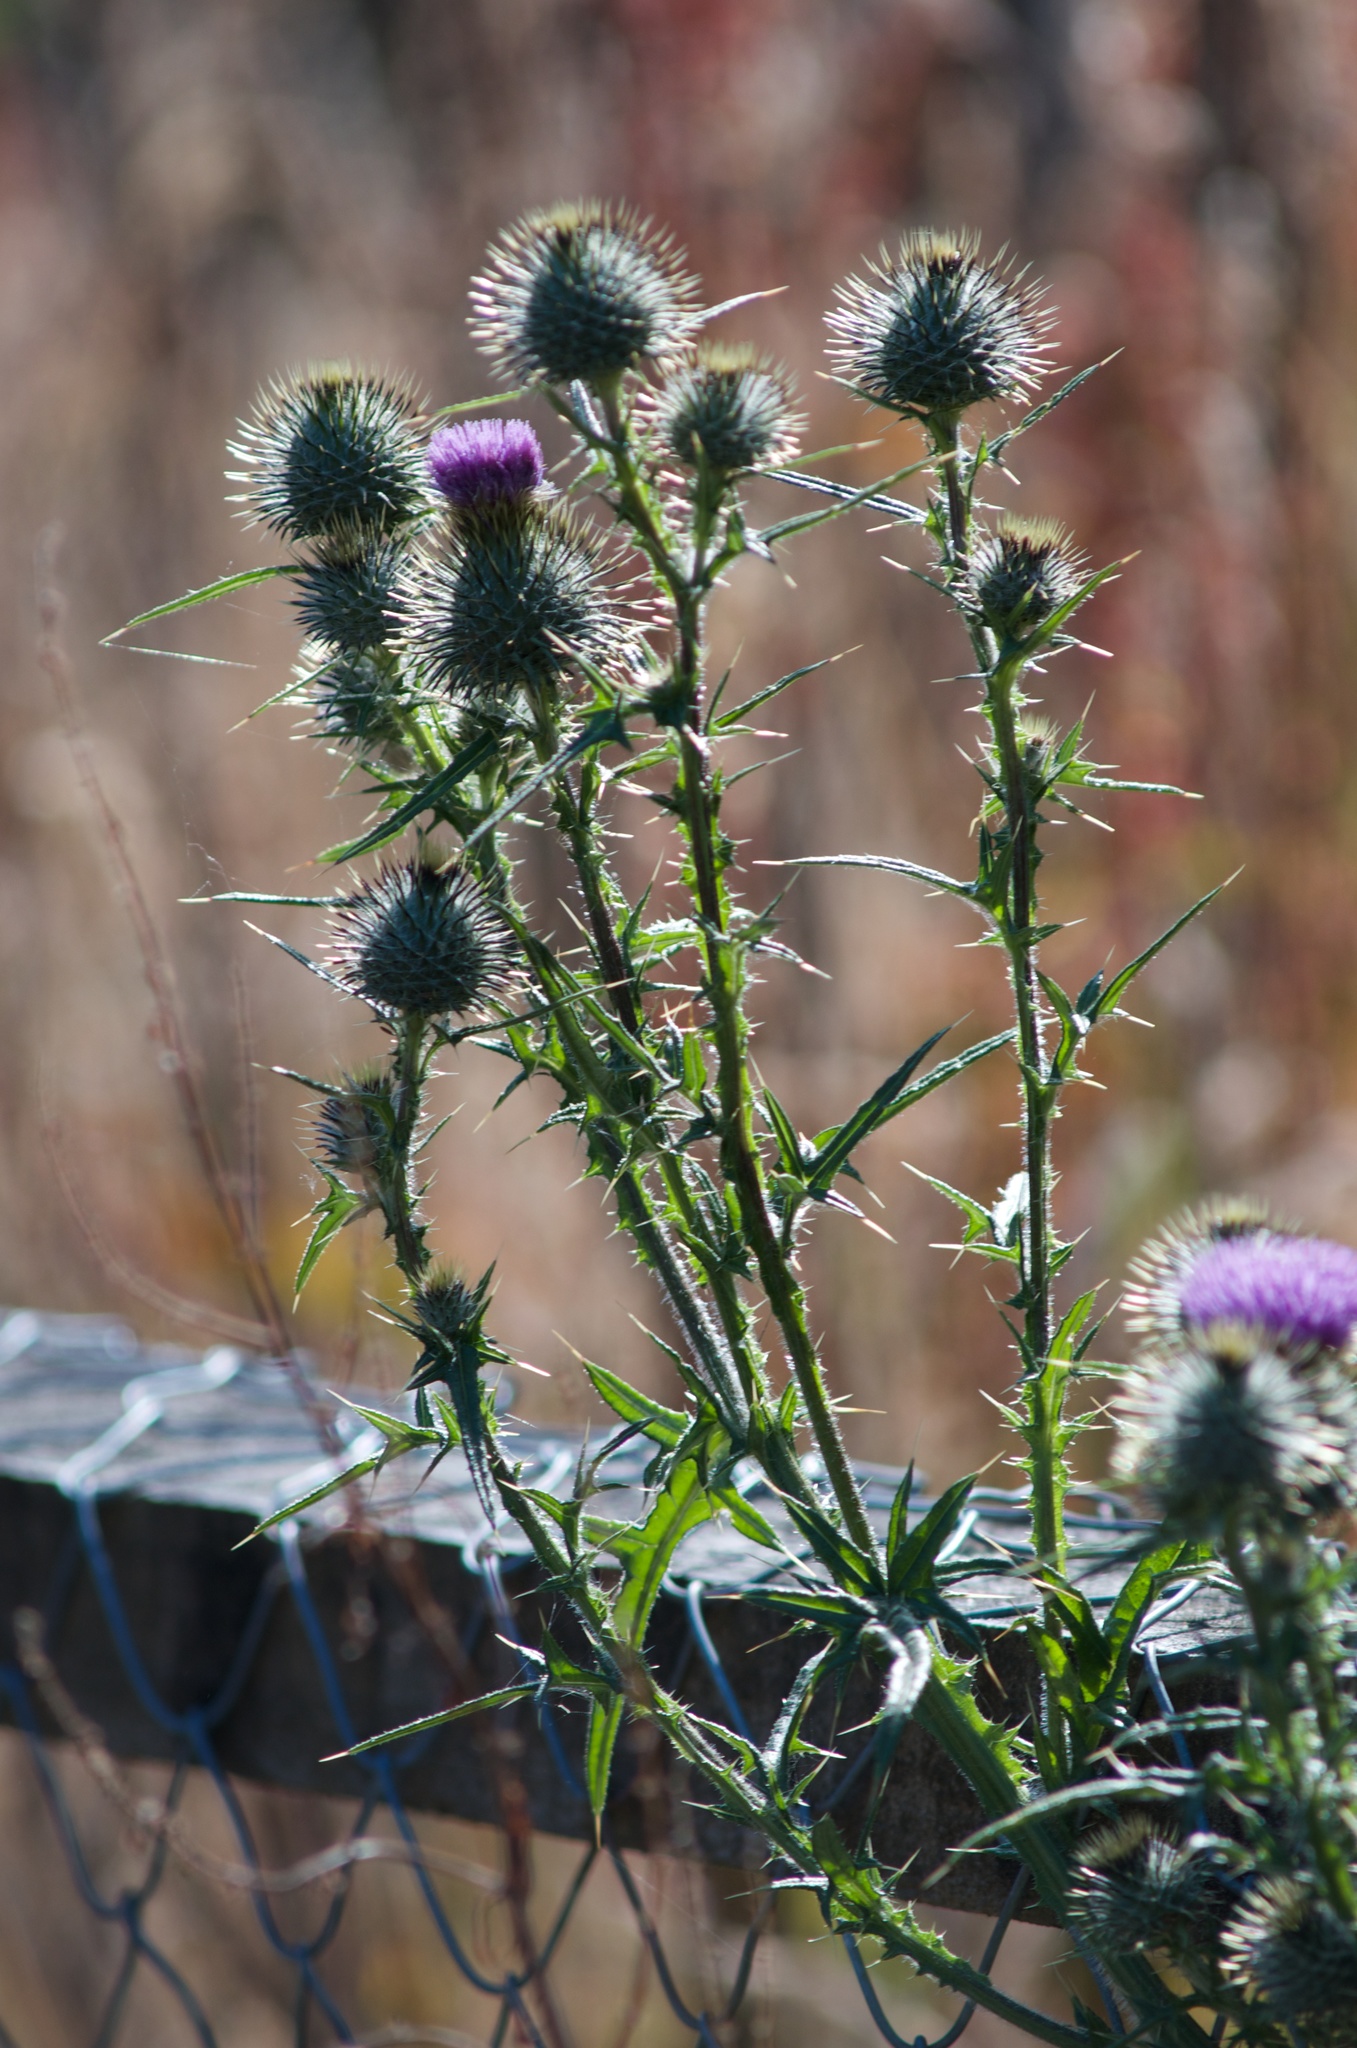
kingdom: Plantae
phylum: Tracheophyta
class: Magnoliopsida
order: Asterales
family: Asteraceae
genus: Cirsium
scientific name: Cirsium vulgare
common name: Bull thistle
